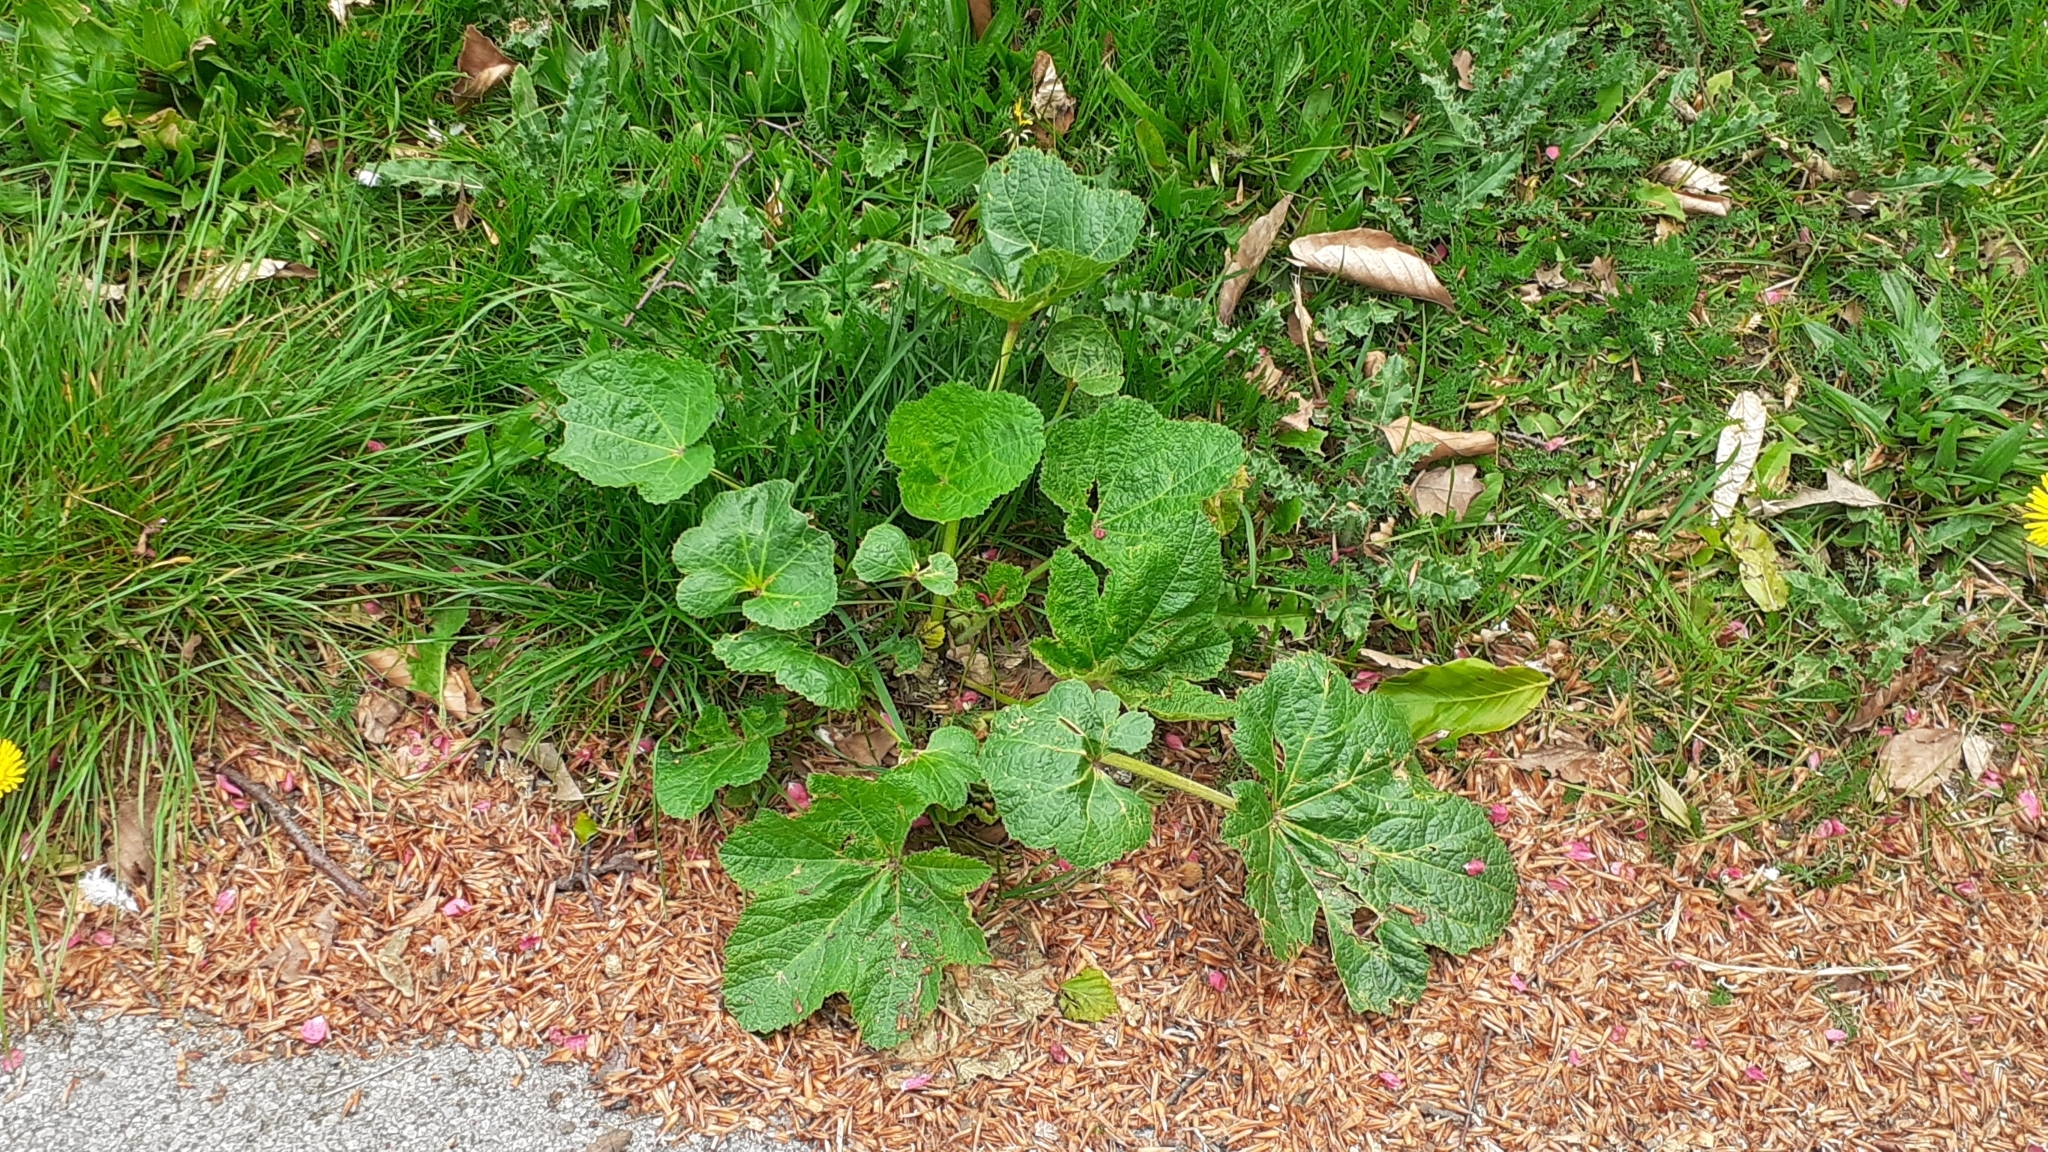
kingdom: Plantae
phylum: Tracheophyta
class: Magnoliopsida
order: Malvales
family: Malvaceae
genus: Alcea
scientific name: Alcea rosea
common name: Hollyhock
